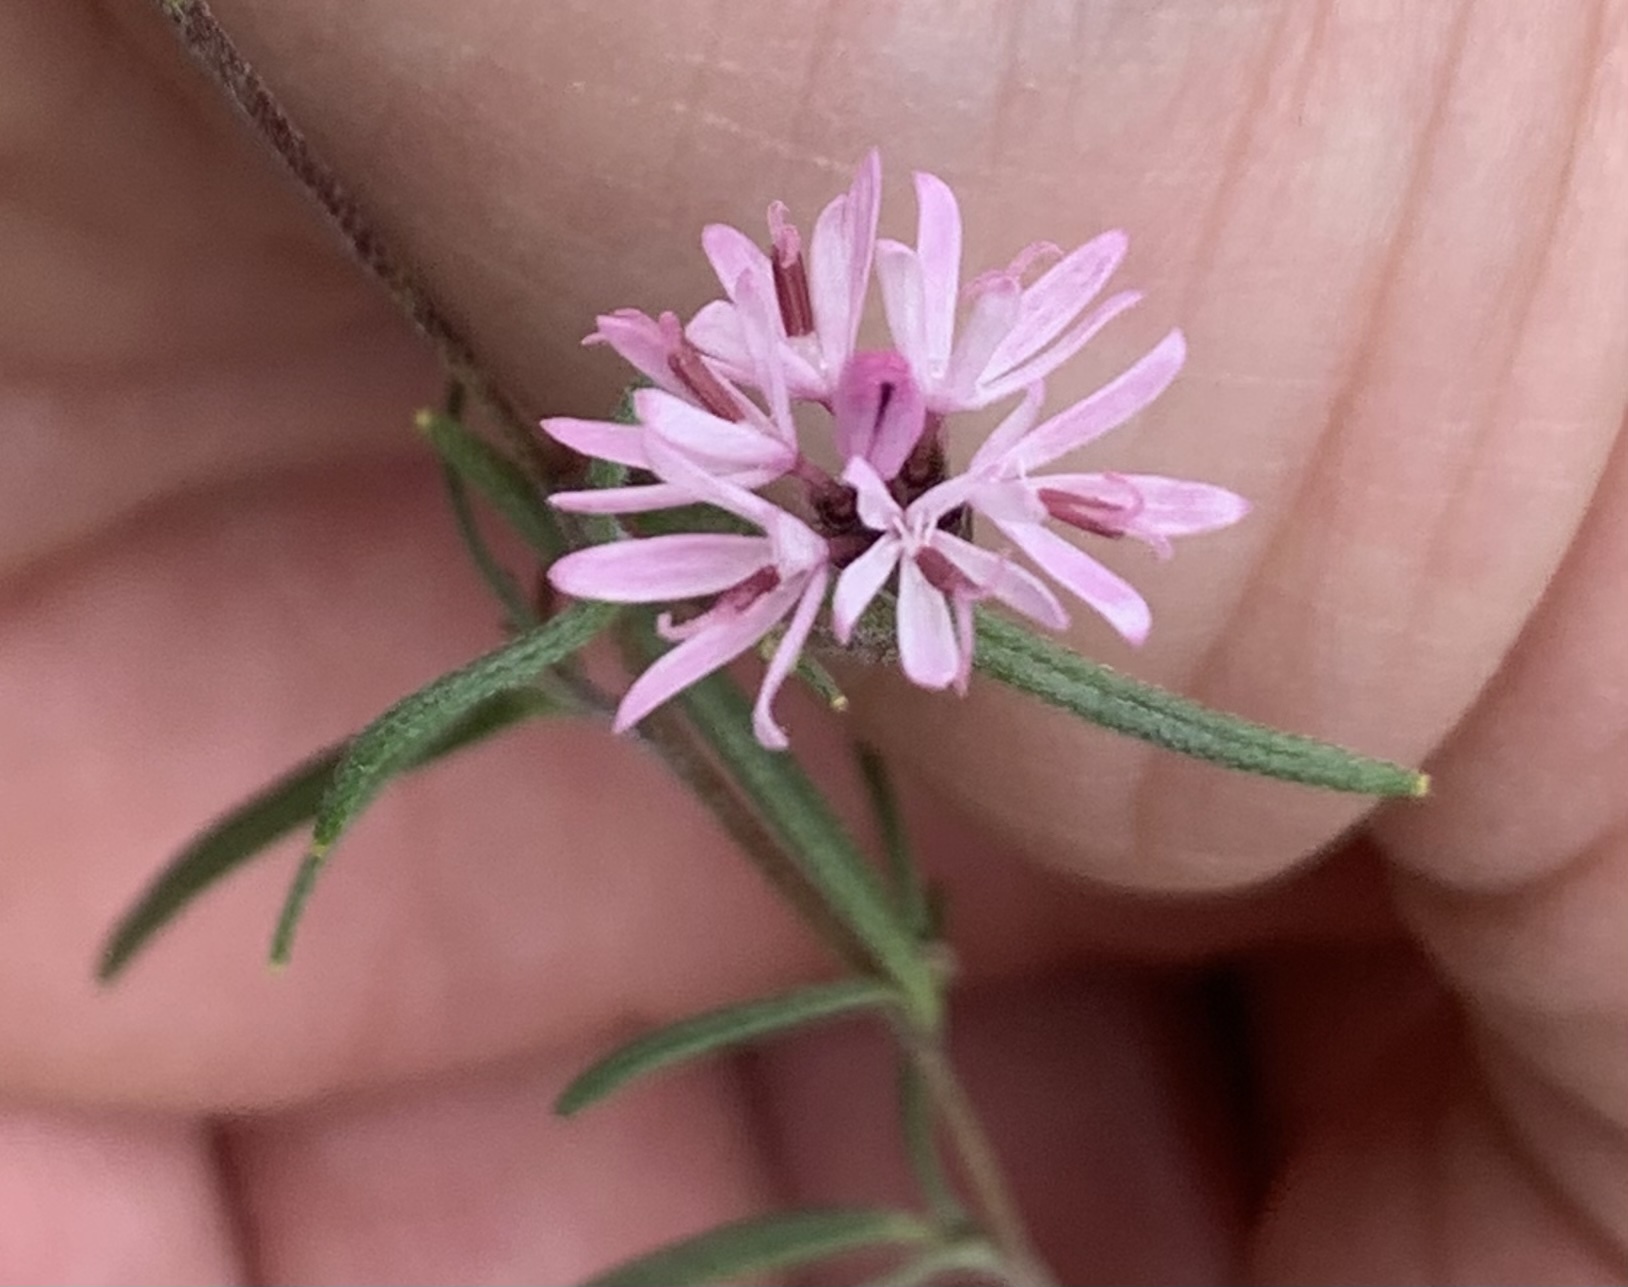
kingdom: Plantae
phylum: Tracheophyta
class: Magnoliopsida
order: Asterales
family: Asteraceae
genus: Palafoxia
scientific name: Palafoxia callosa
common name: Small palafox
